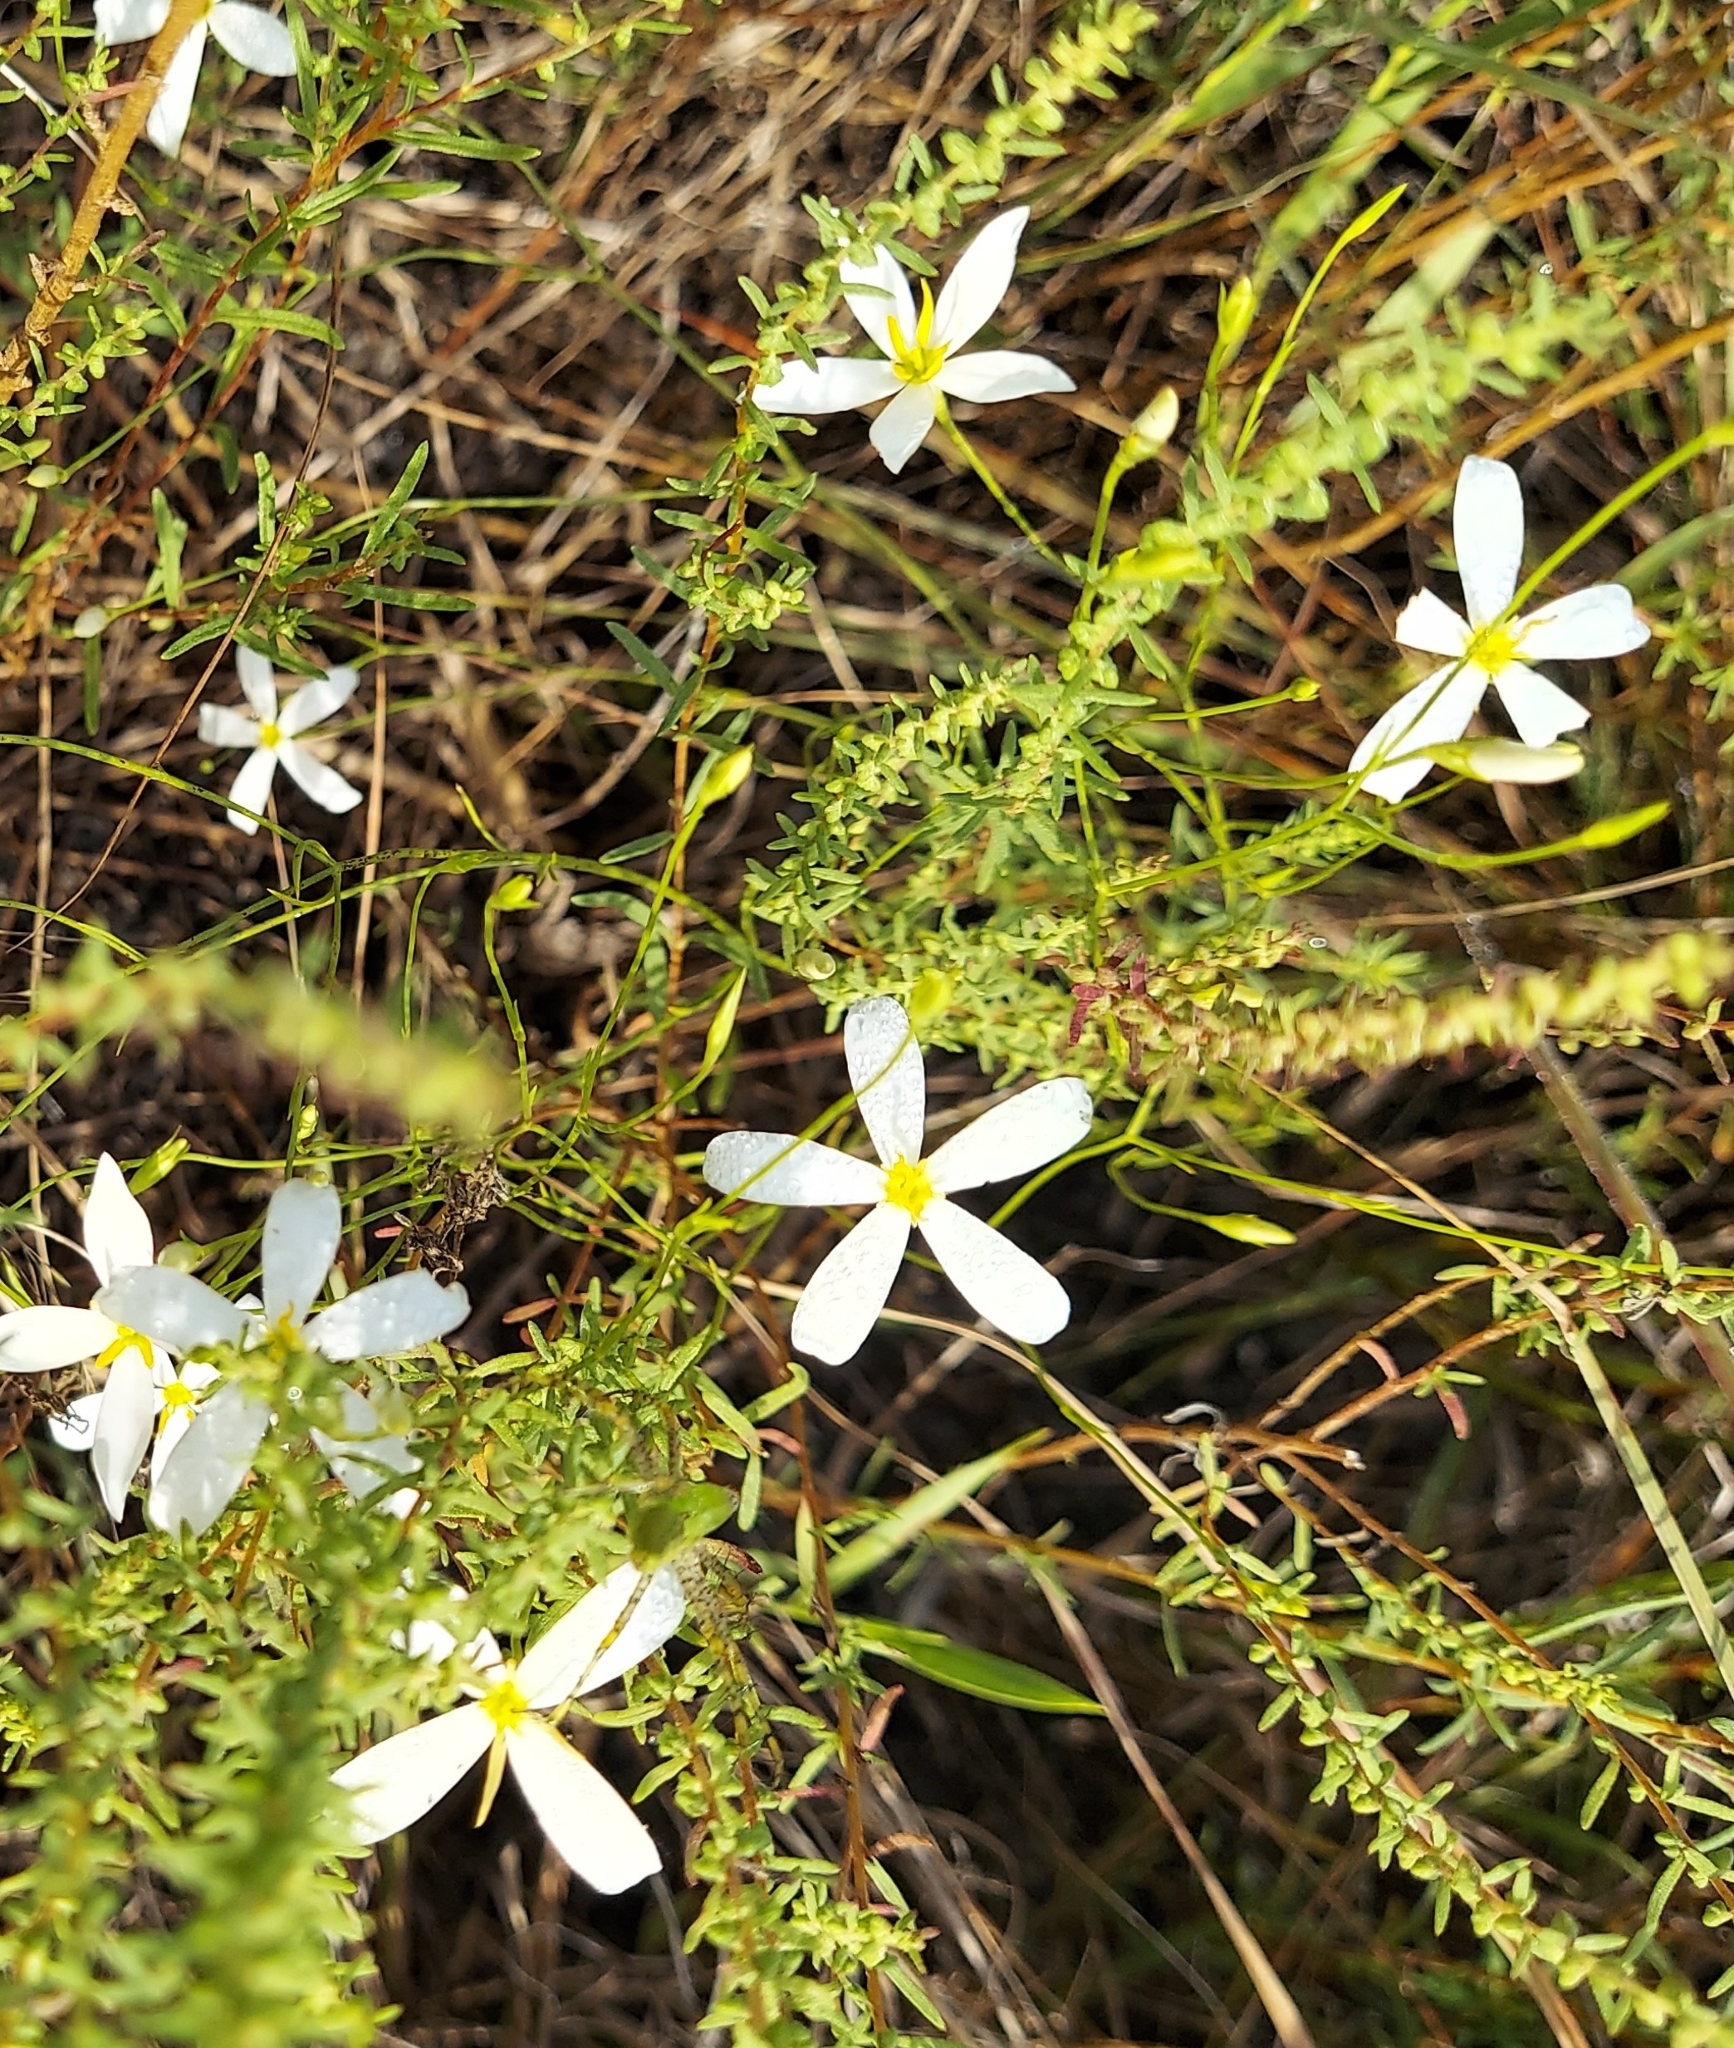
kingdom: Plantae
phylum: Tracheophyta
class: Magnoliopsida
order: Gentianales
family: Gentianaceae
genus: Sabatia
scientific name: Sabatia brevifolia
